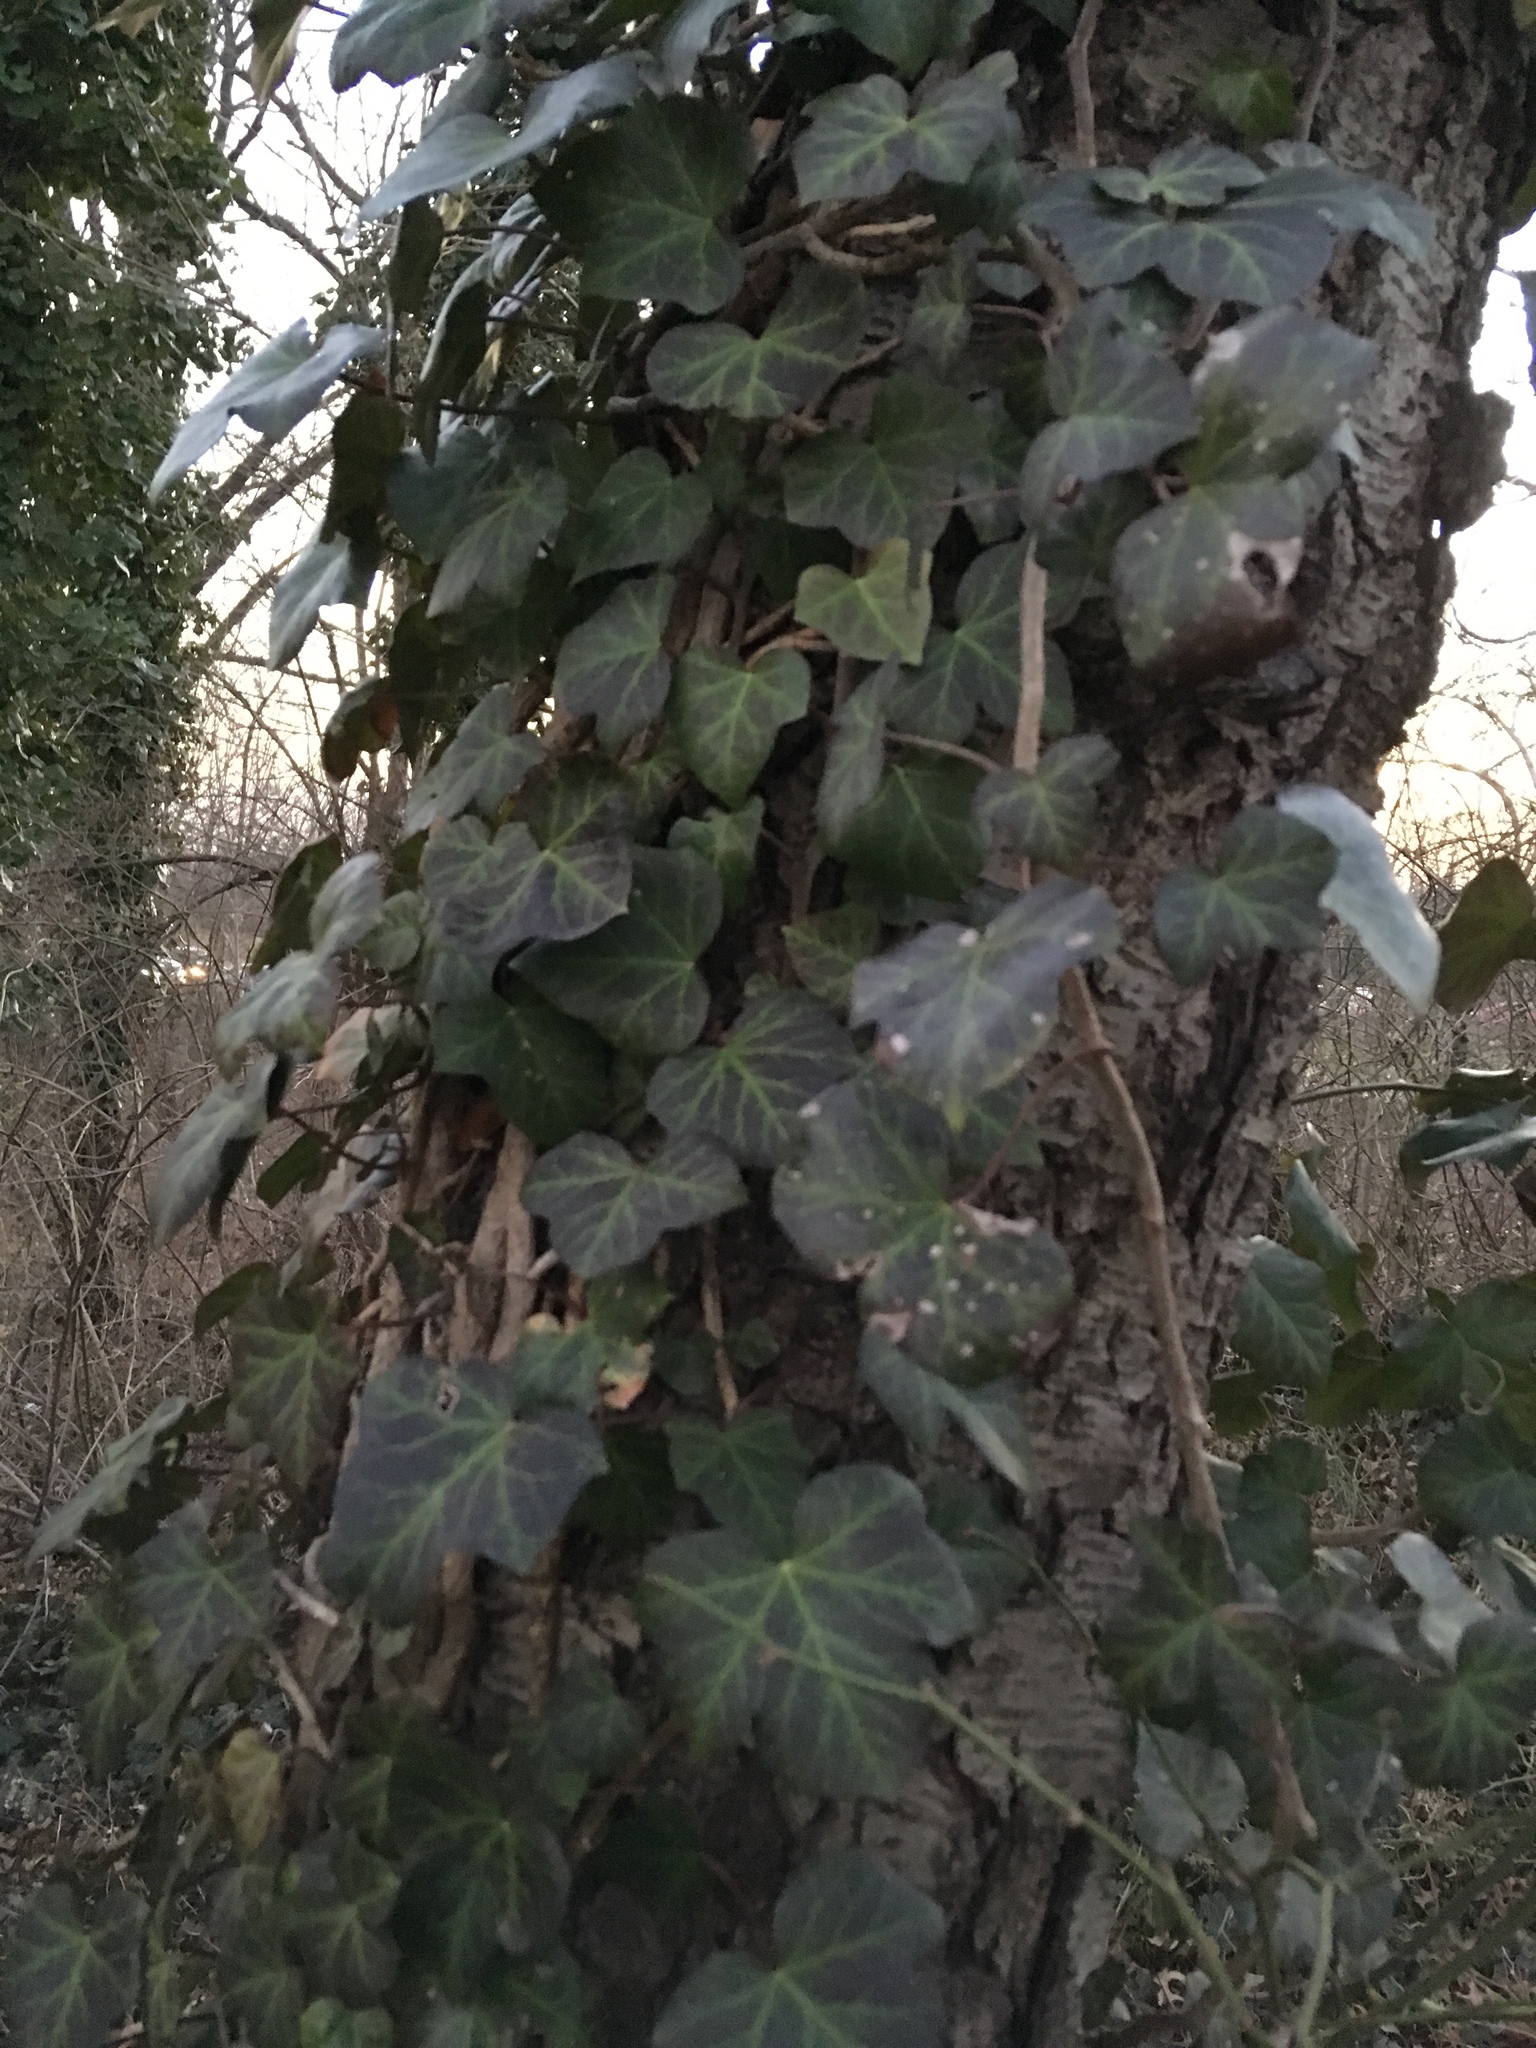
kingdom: Plantae
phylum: Tracheophyta
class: Magnoliopsida
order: Apiales
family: Araliaceae
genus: Hedera
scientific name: Hedera helix
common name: Ivy
